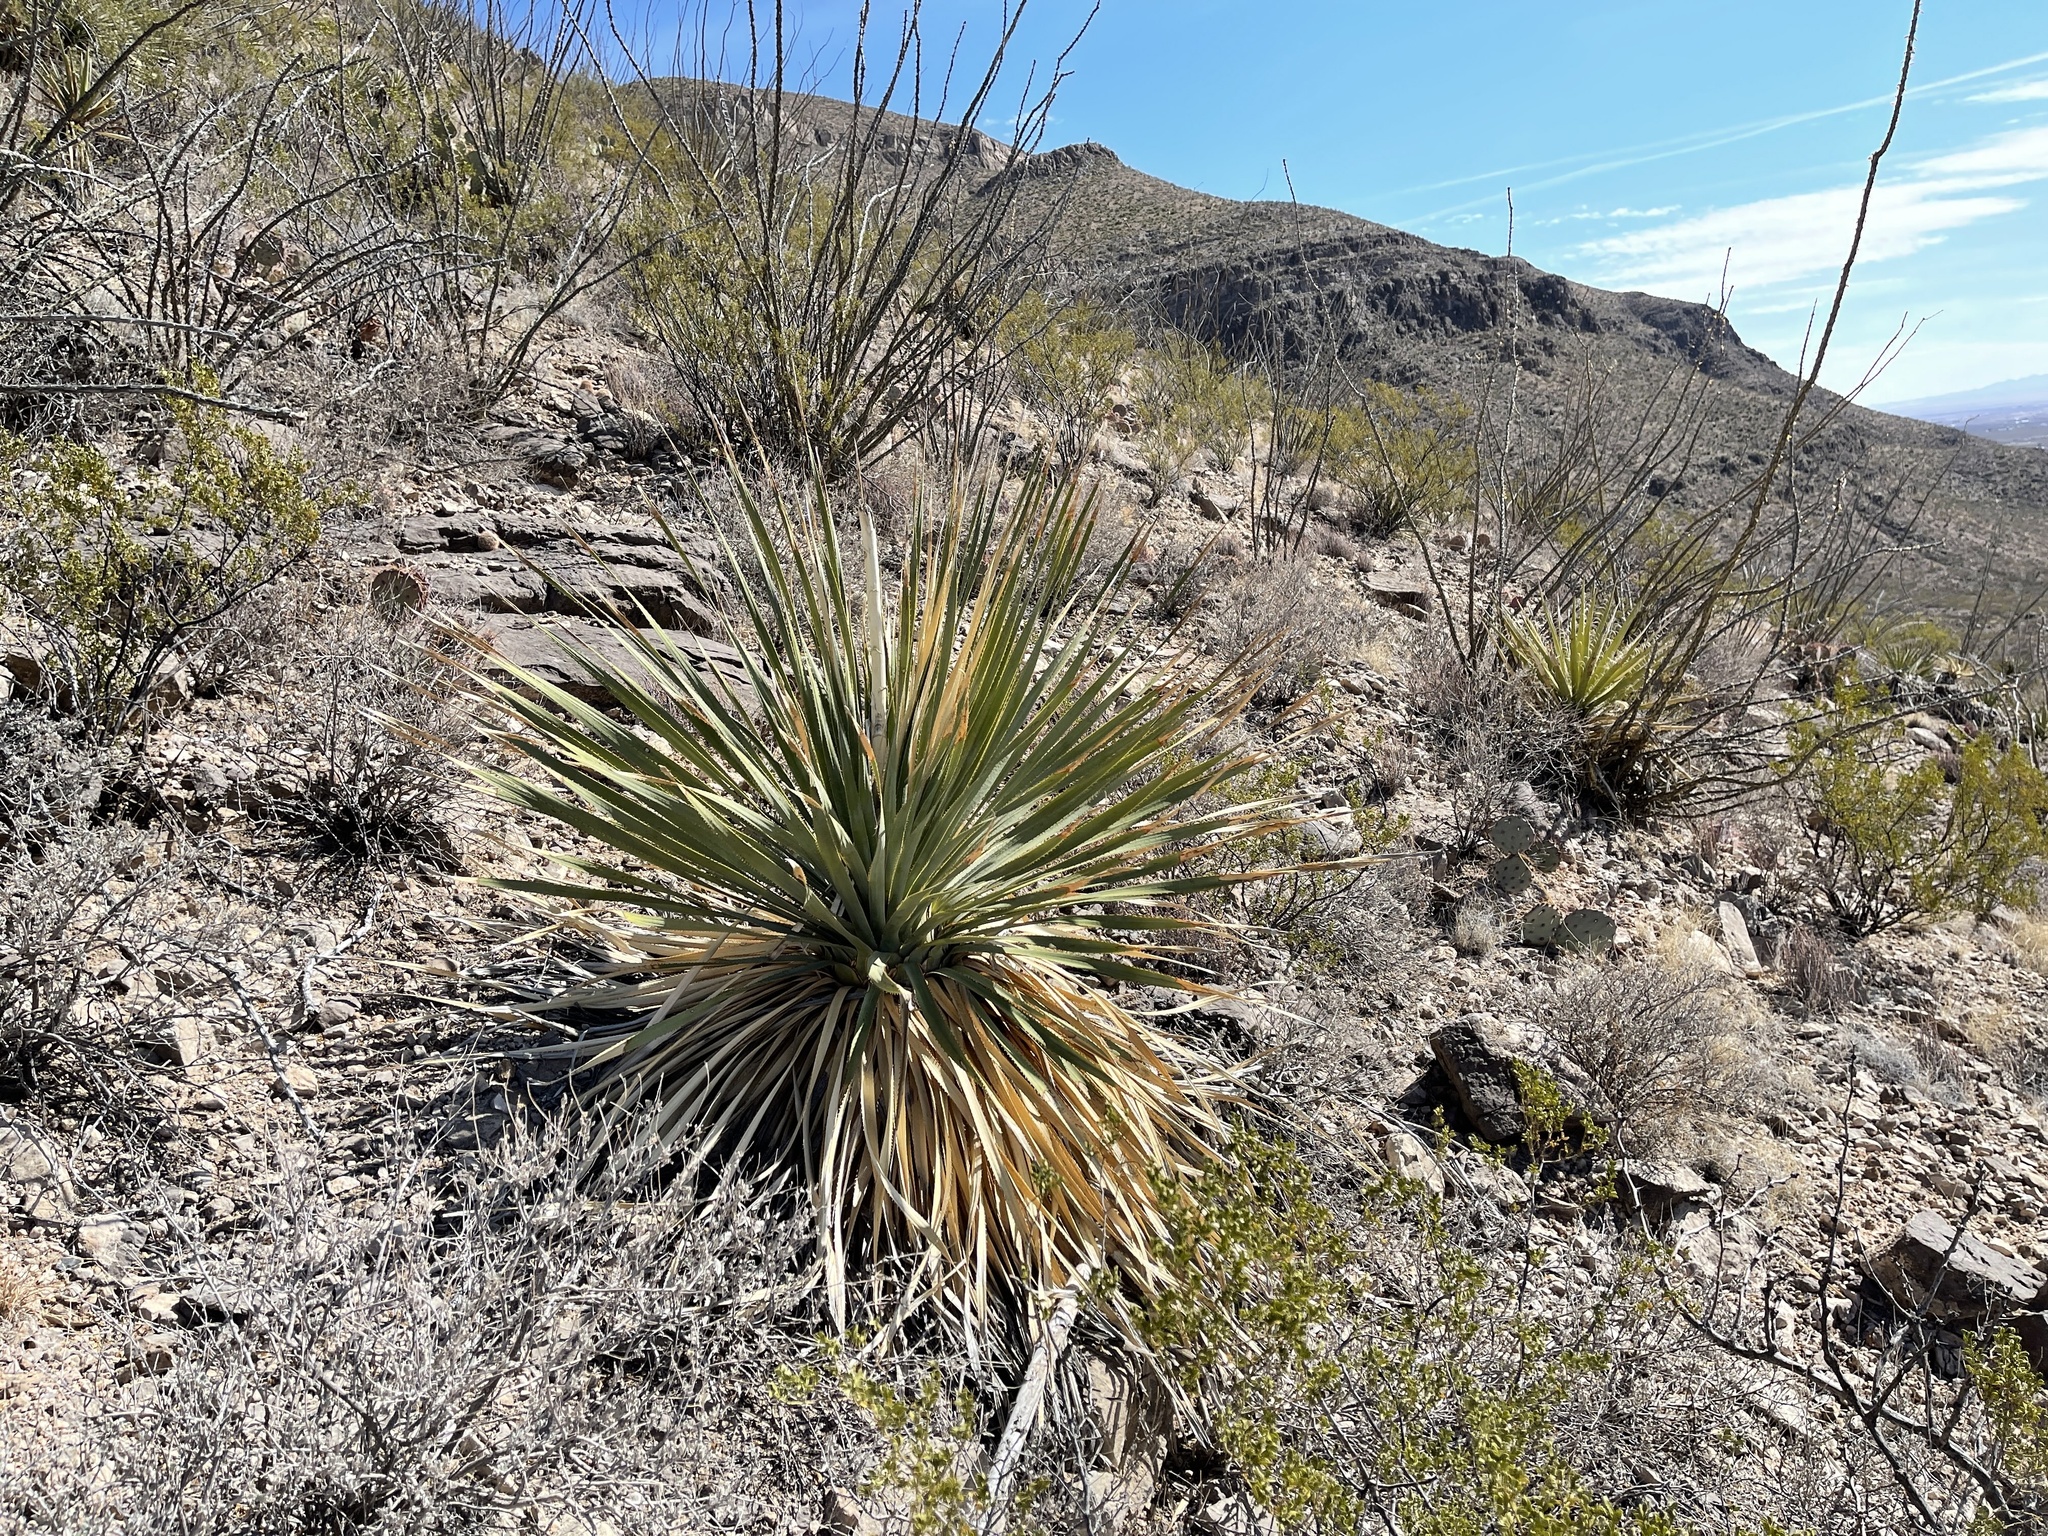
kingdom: Plantae
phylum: Tracheophyta
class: Liliopsida
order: Asparagales
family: Asparagaceae
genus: Dasylirion
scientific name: Dasylirion wheeleri
